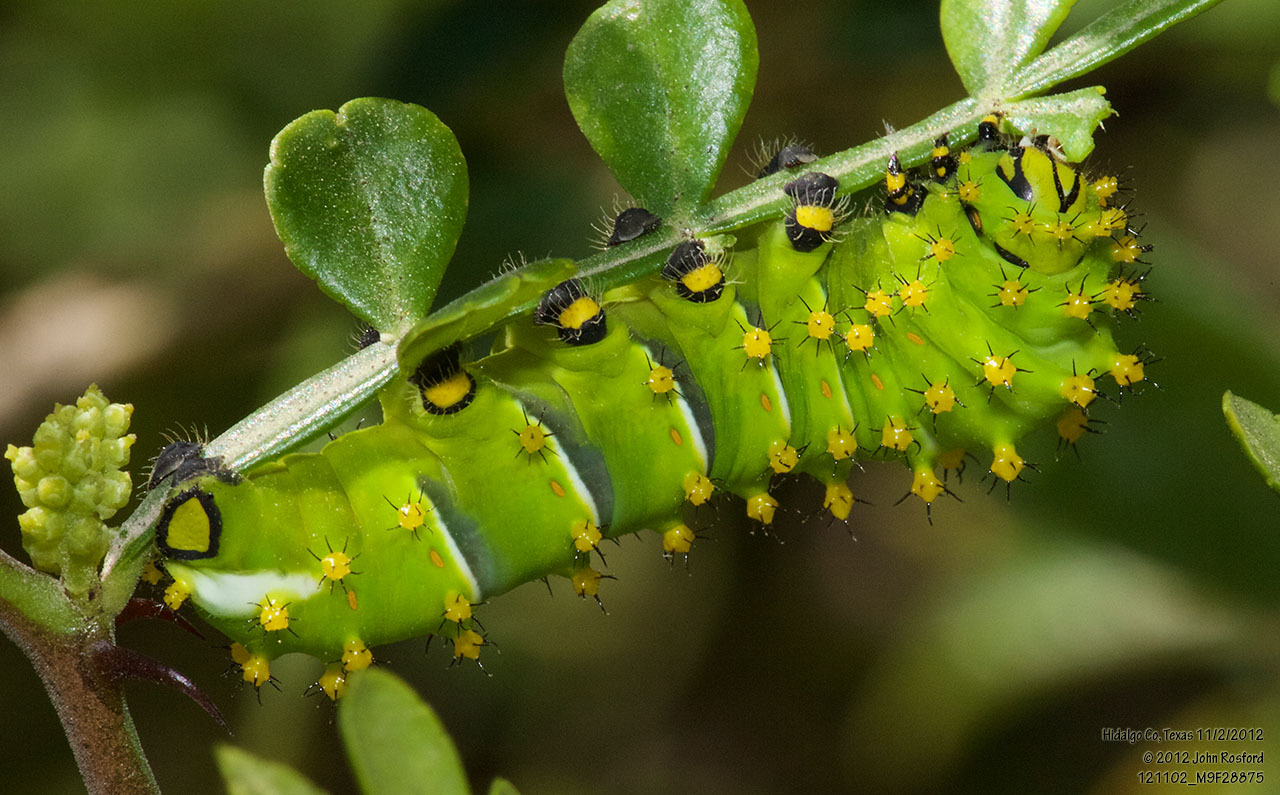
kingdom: Animalia
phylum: Arthropoda
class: Insecta
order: Lepidoptera
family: Saturniidae
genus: Rothschildia
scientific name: Rothschildia lebeau
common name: Lebeau's rothschildia
